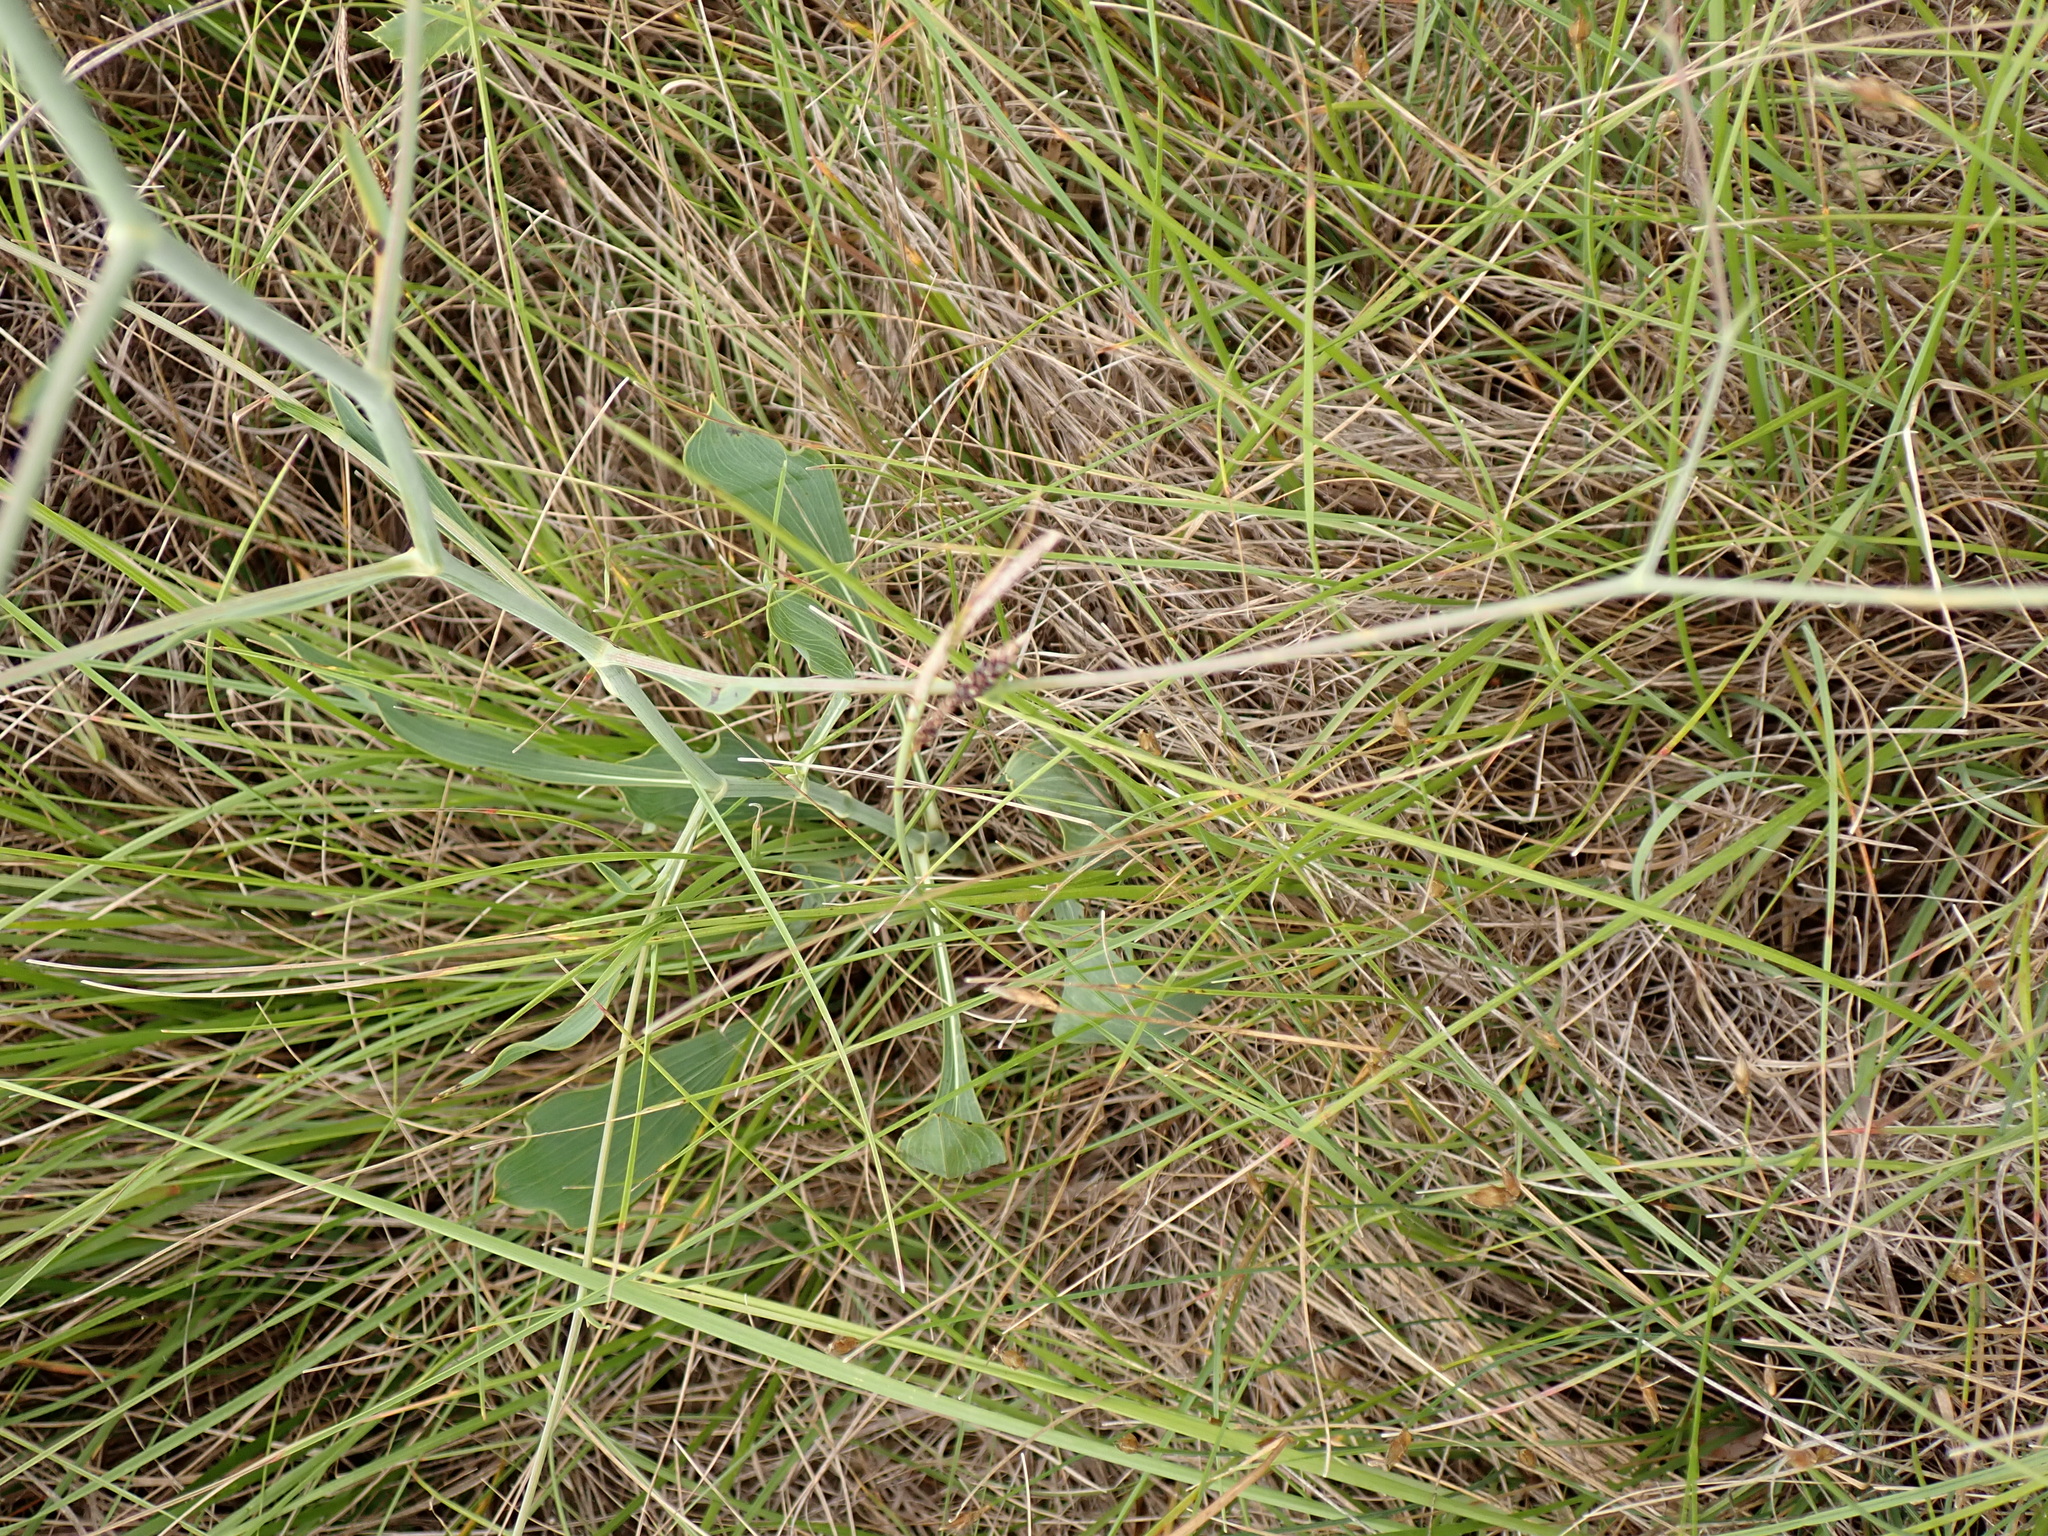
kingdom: Plantae
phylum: Tracheophyta
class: Magnoliopsida
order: Apiales
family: Apiaceae
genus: Bupleurum
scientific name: Bupleurum rigidum
